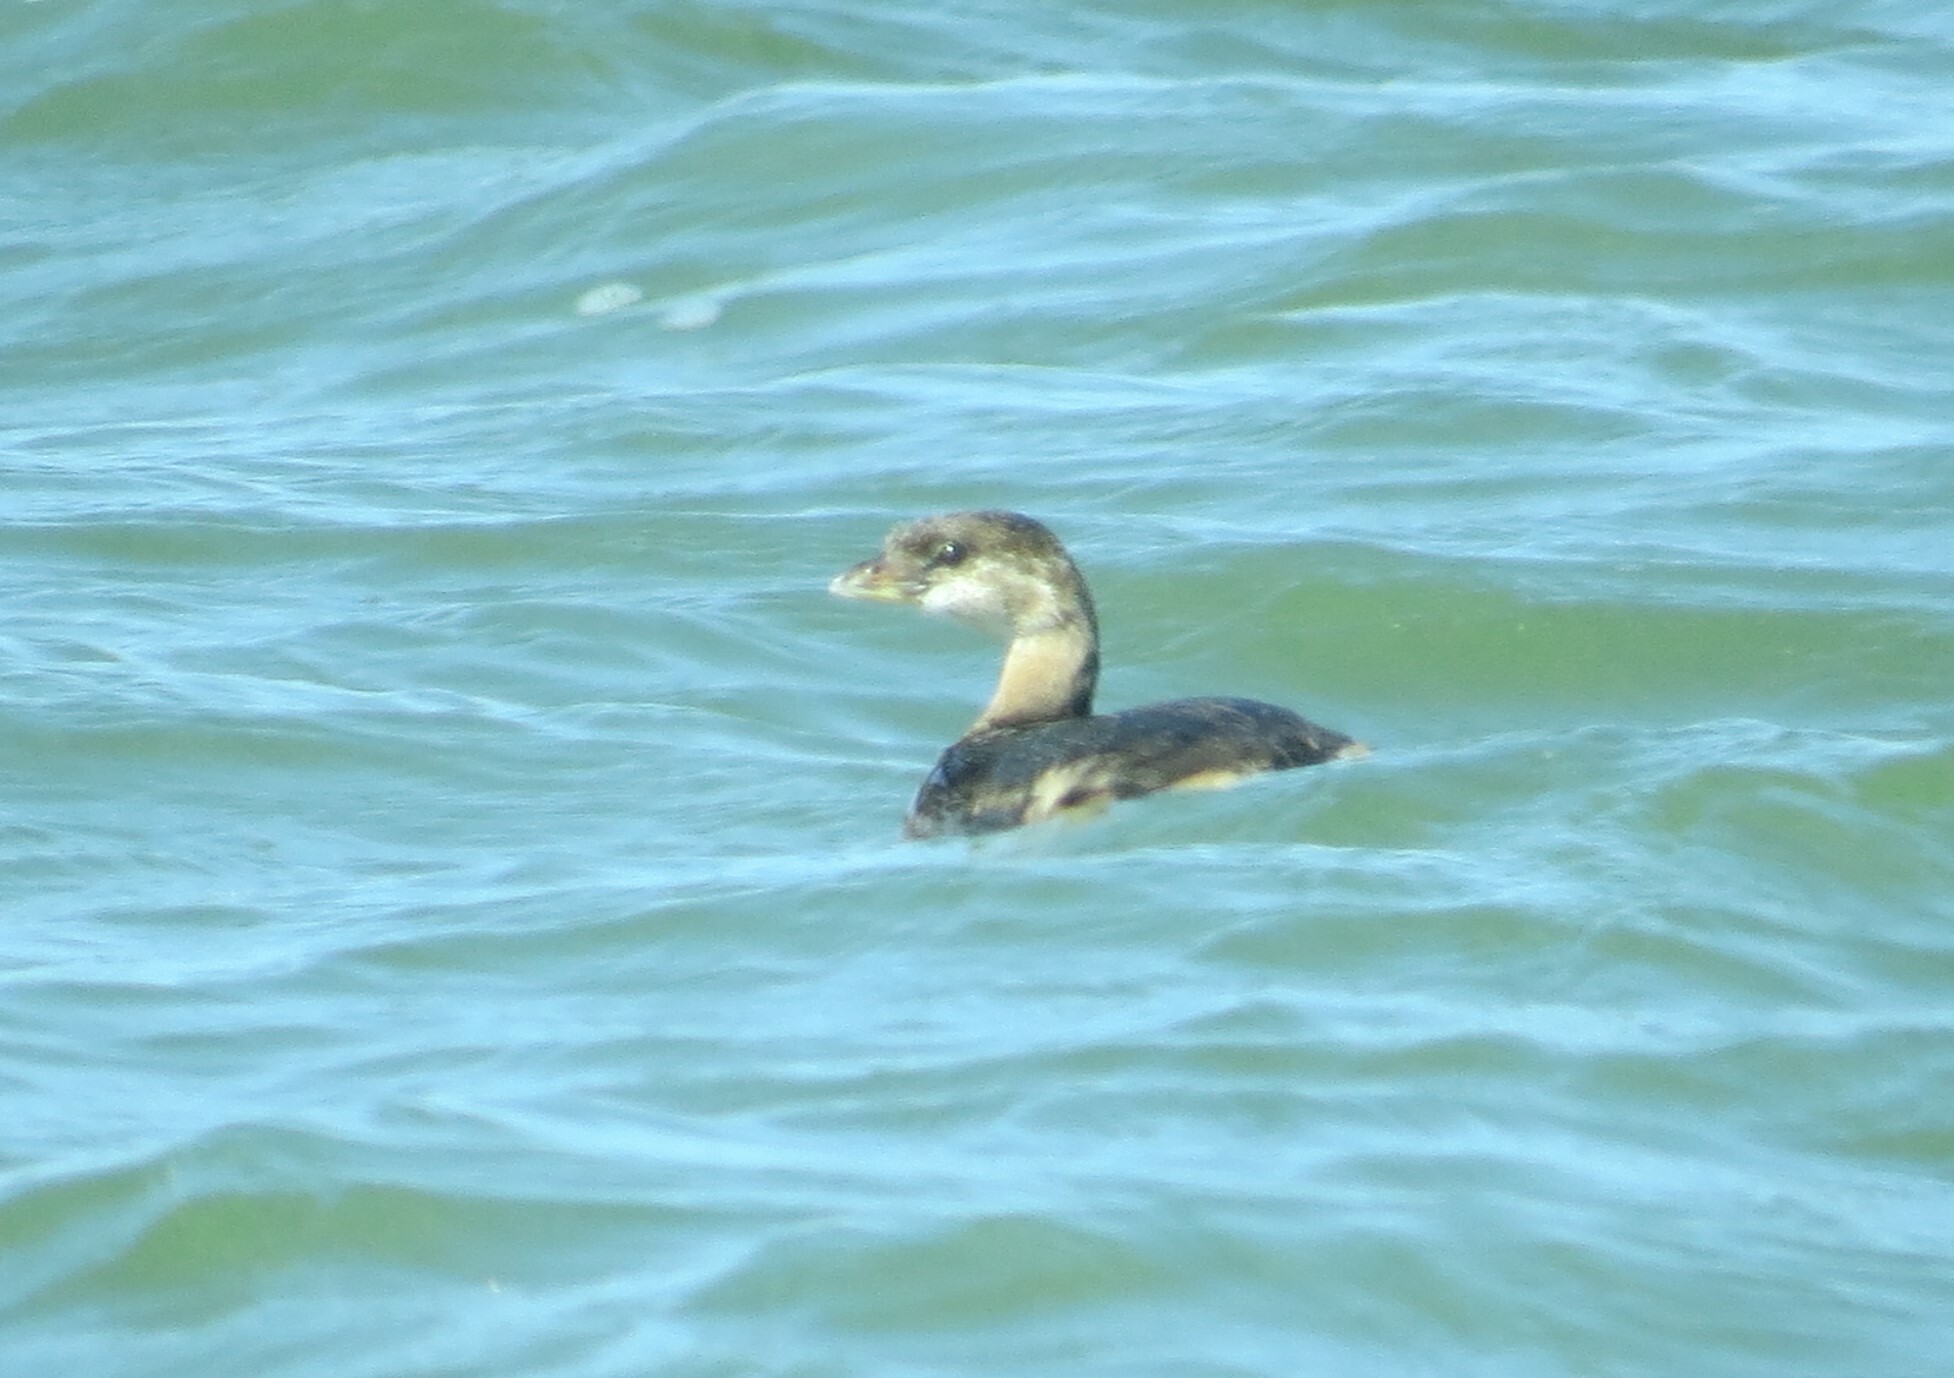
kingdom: Animalia
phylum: Chordata
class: Aves
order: Podicipediformes
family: Podicipedidae
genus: Podilymbus
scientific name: Podilymbus podiceps
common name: Pied-billed grebe
